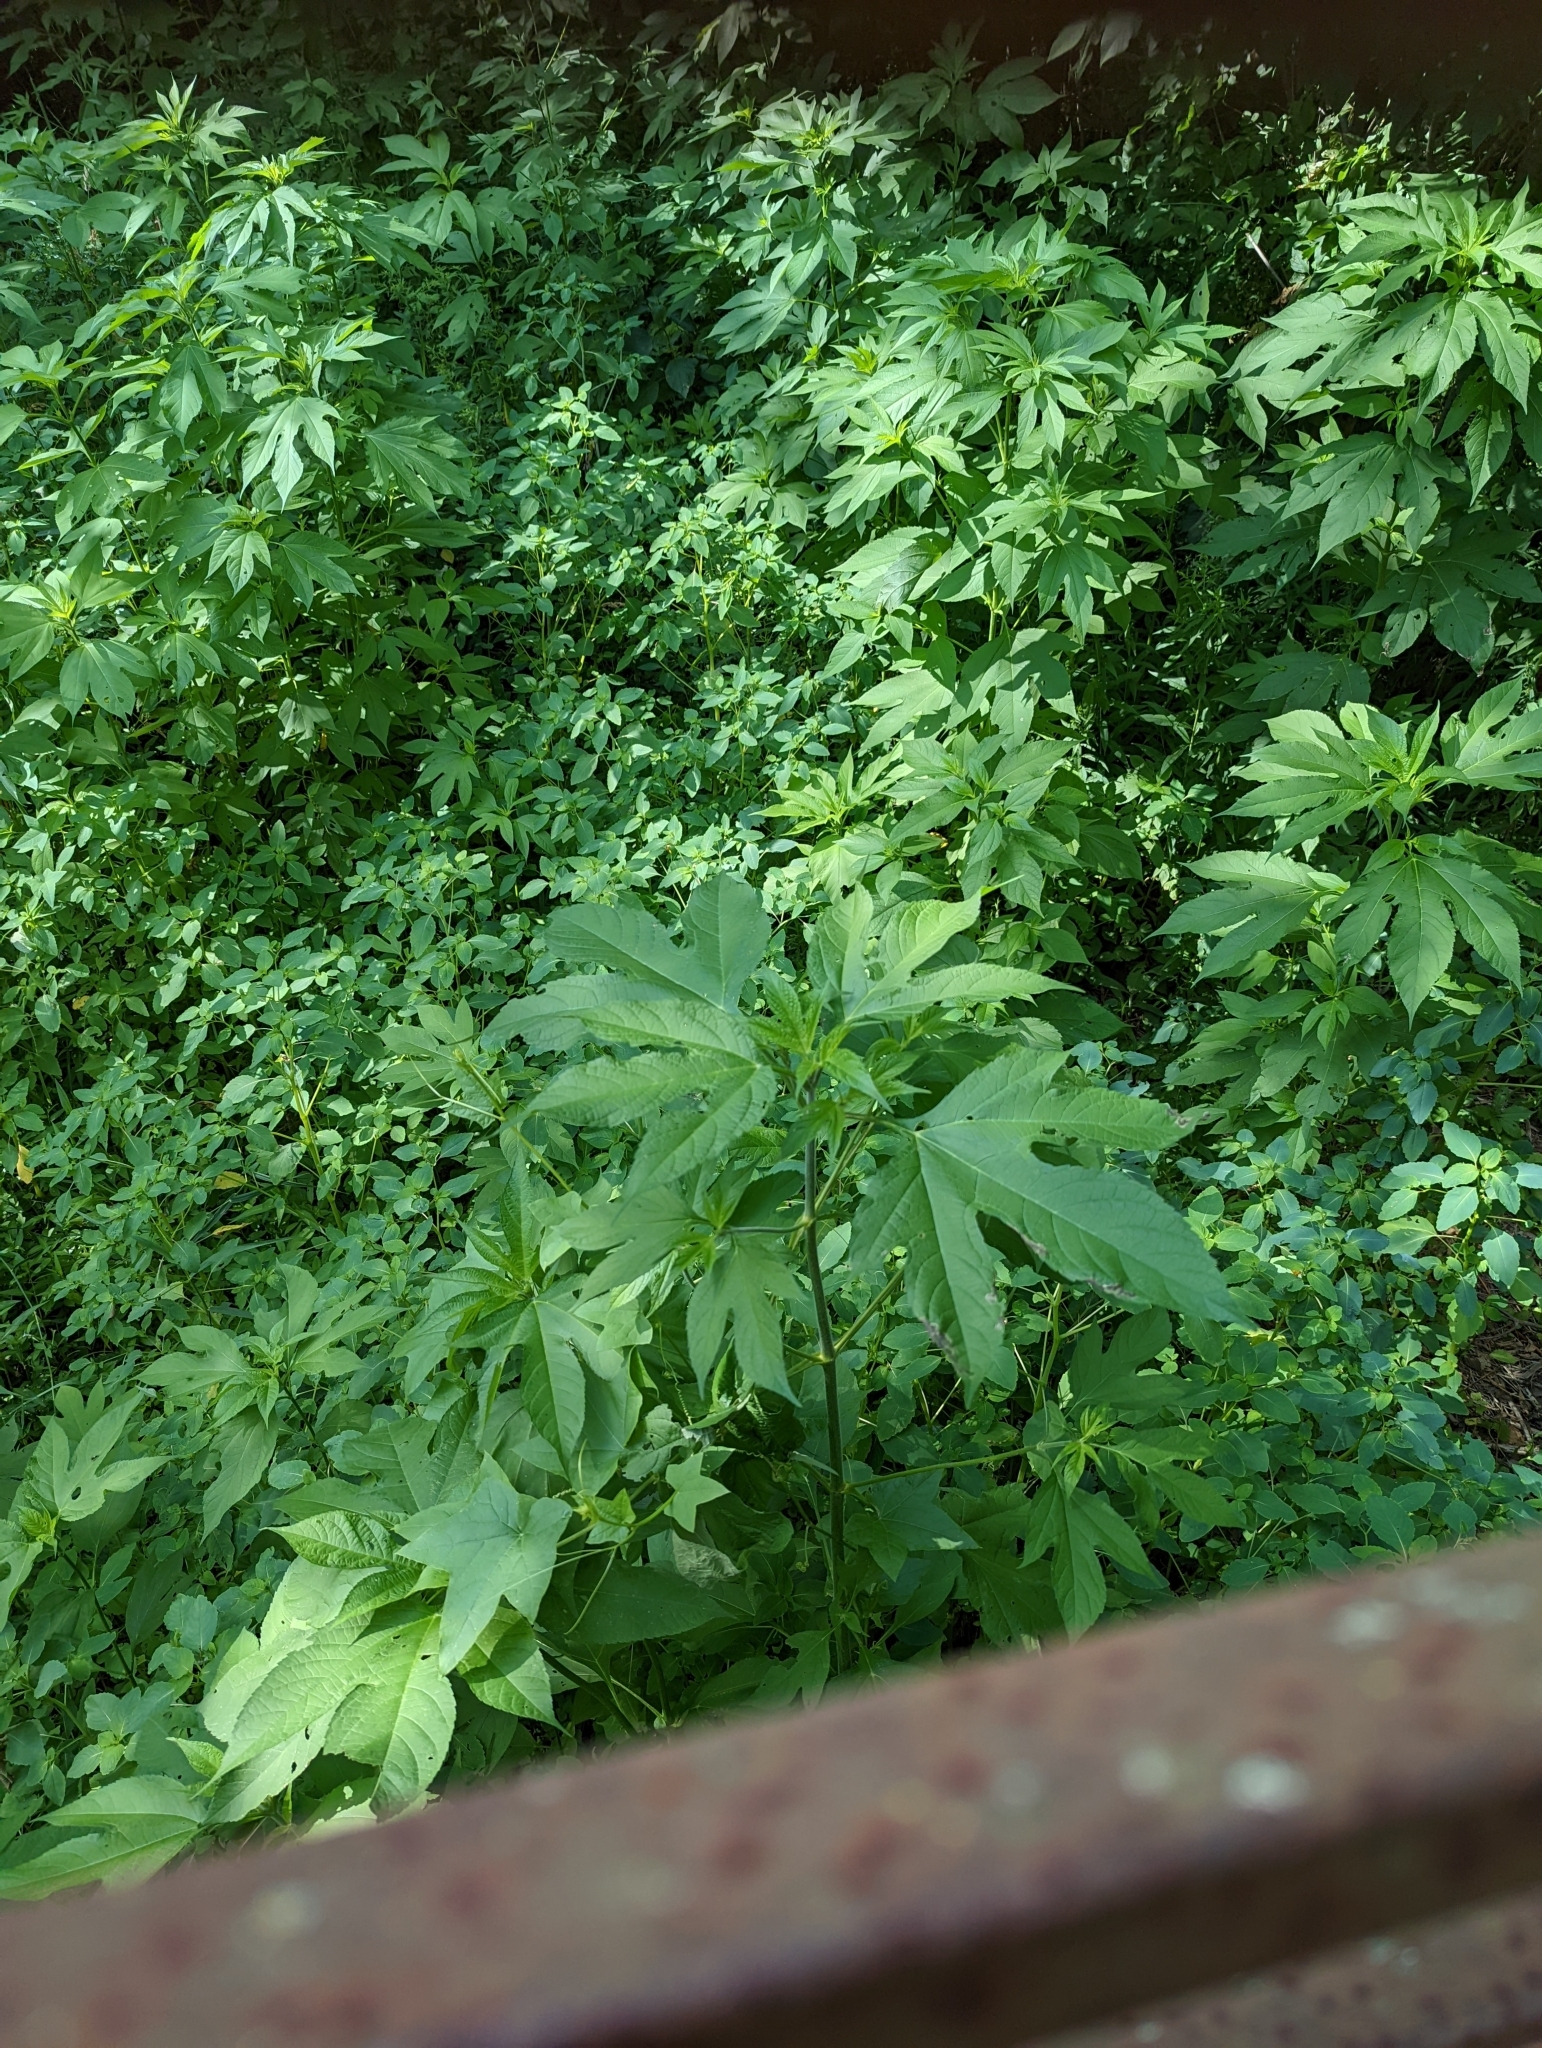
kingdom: Plantae
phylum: Tracheophyta
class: Magnoliopsida
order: Asterales
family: Asteraceae
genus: Ambrosia
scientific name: Ambrosia trifida
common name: Giant ragweed
